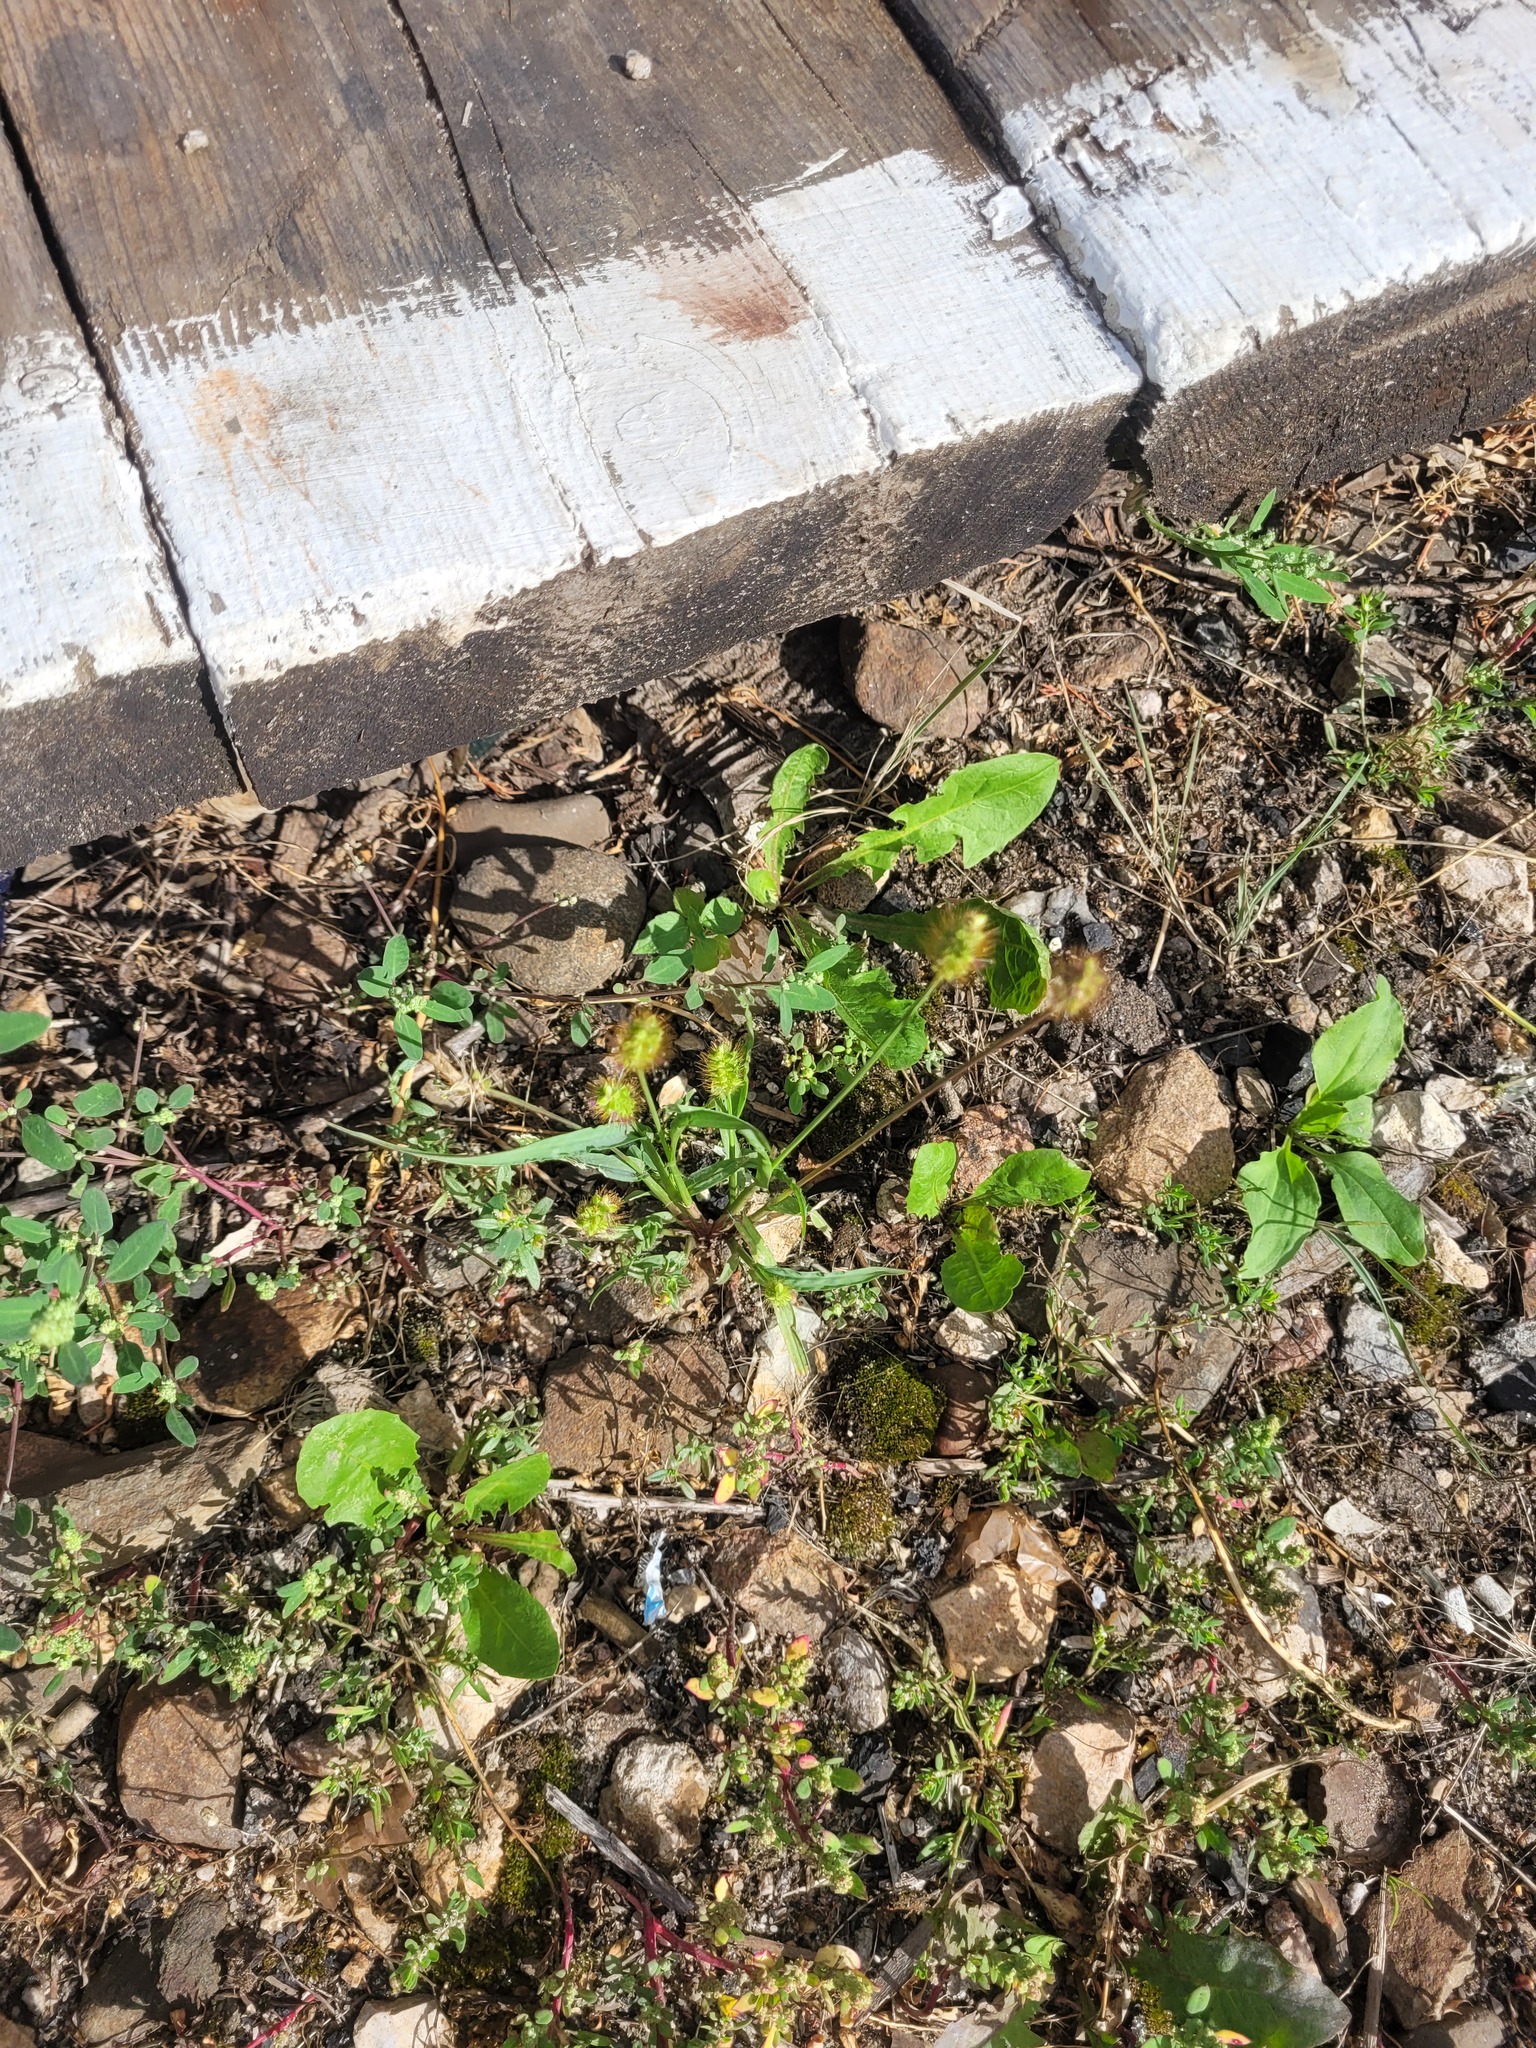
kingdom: Plantae
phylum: Tracheophyta
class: Liliopsida
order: Poales
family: Poaceae
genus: Setaria
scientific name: Setaria pumila
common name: Yellow bristle-grass
